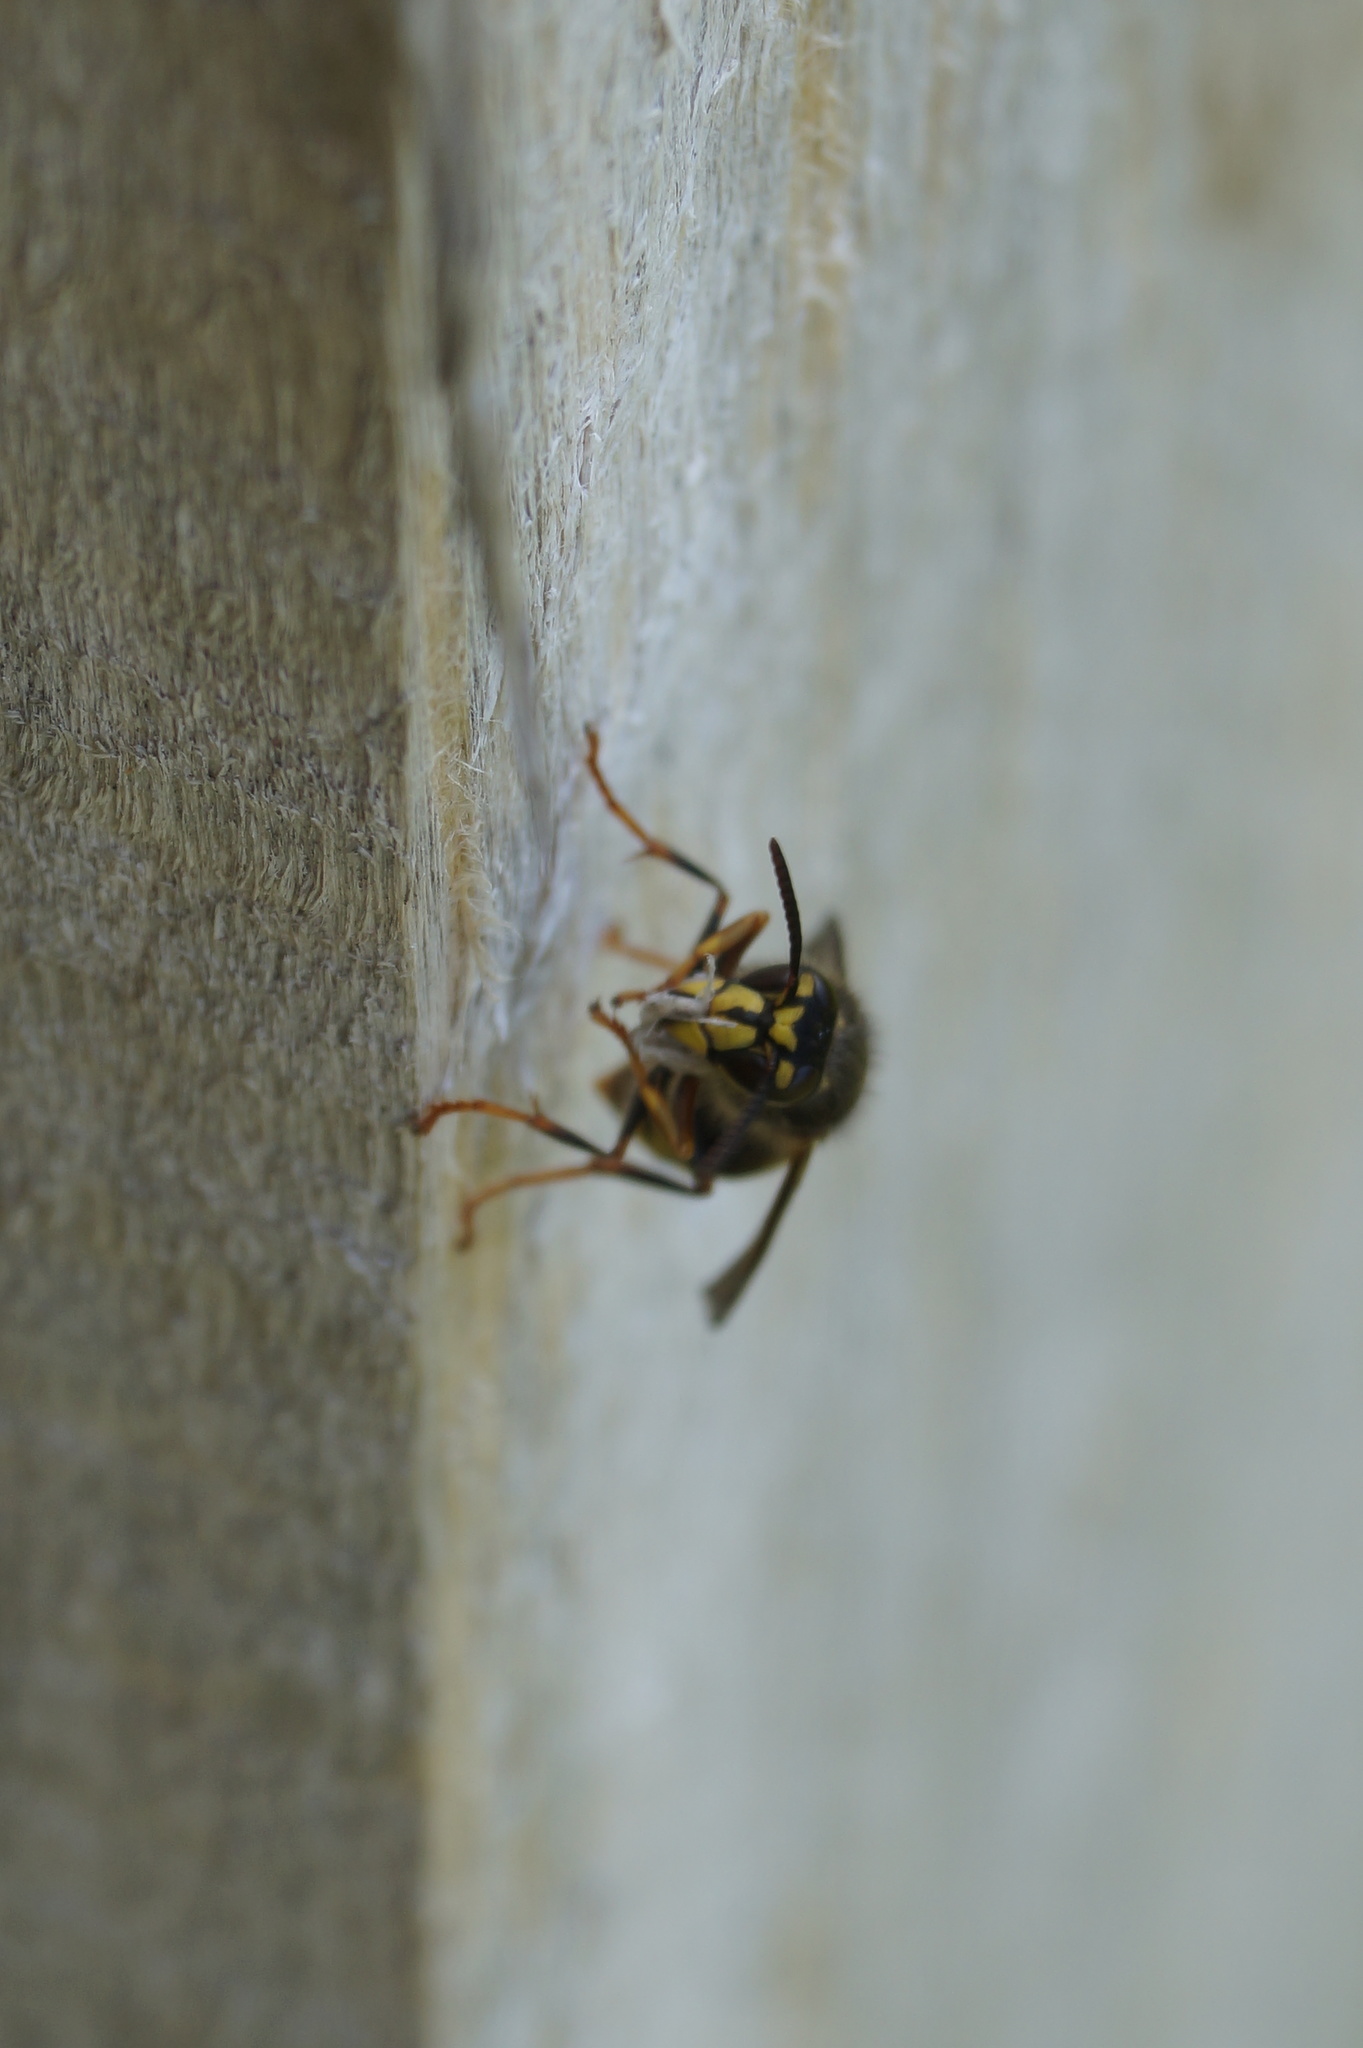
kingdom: Animalia
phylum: Arthropoda
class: Insecta
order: Hymenoptera
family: Vespidae
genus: Dolichovespula
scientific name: Dolichovespula media
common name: Median wasp
